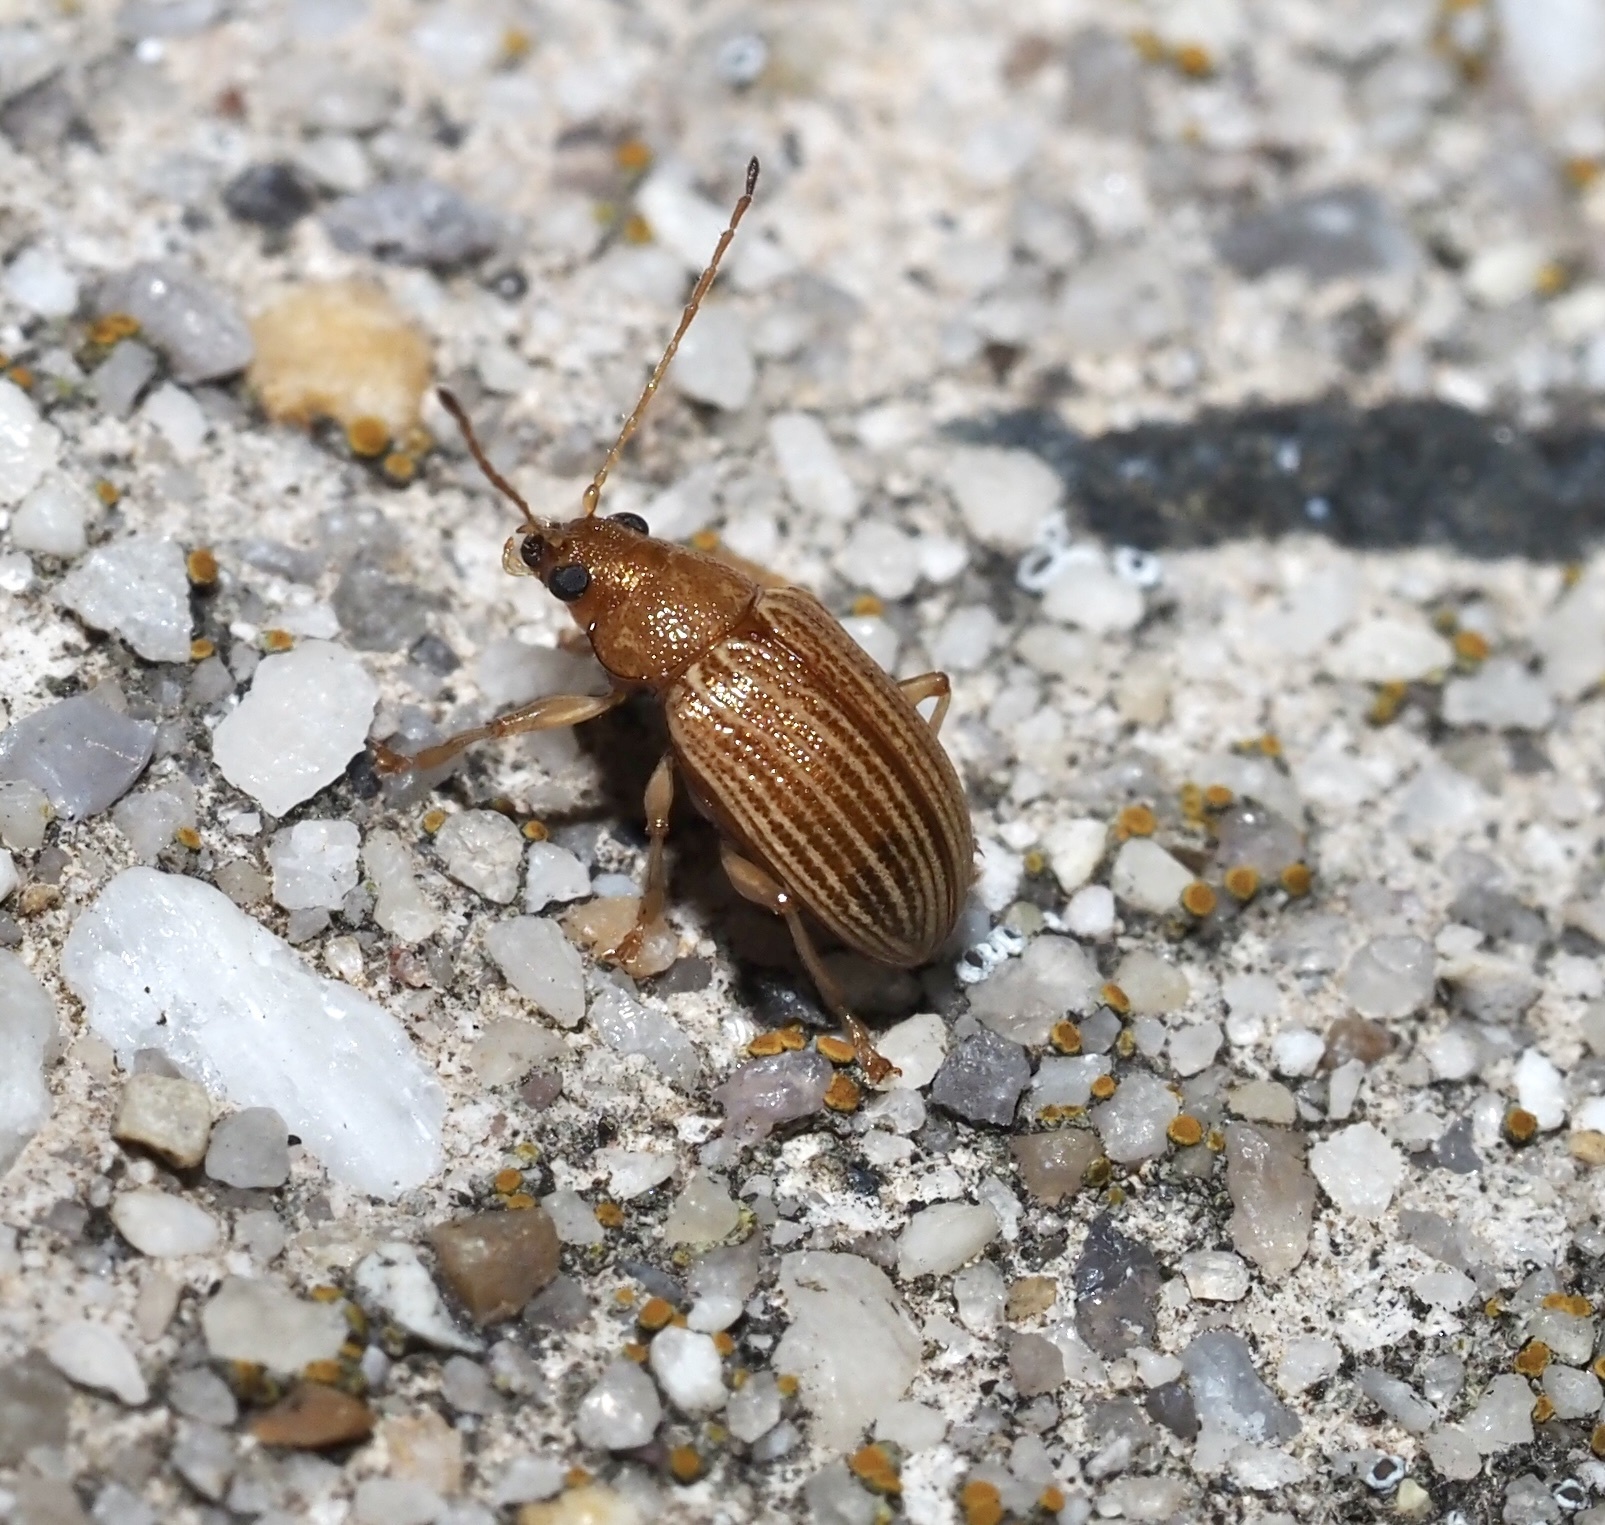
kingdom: Animalia
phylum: Arthropoda
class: Insecta
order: Coleoptera
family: Chrysomelidae
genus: Colaspis
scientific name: Colaspis brunnea
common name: Grape colaspis
